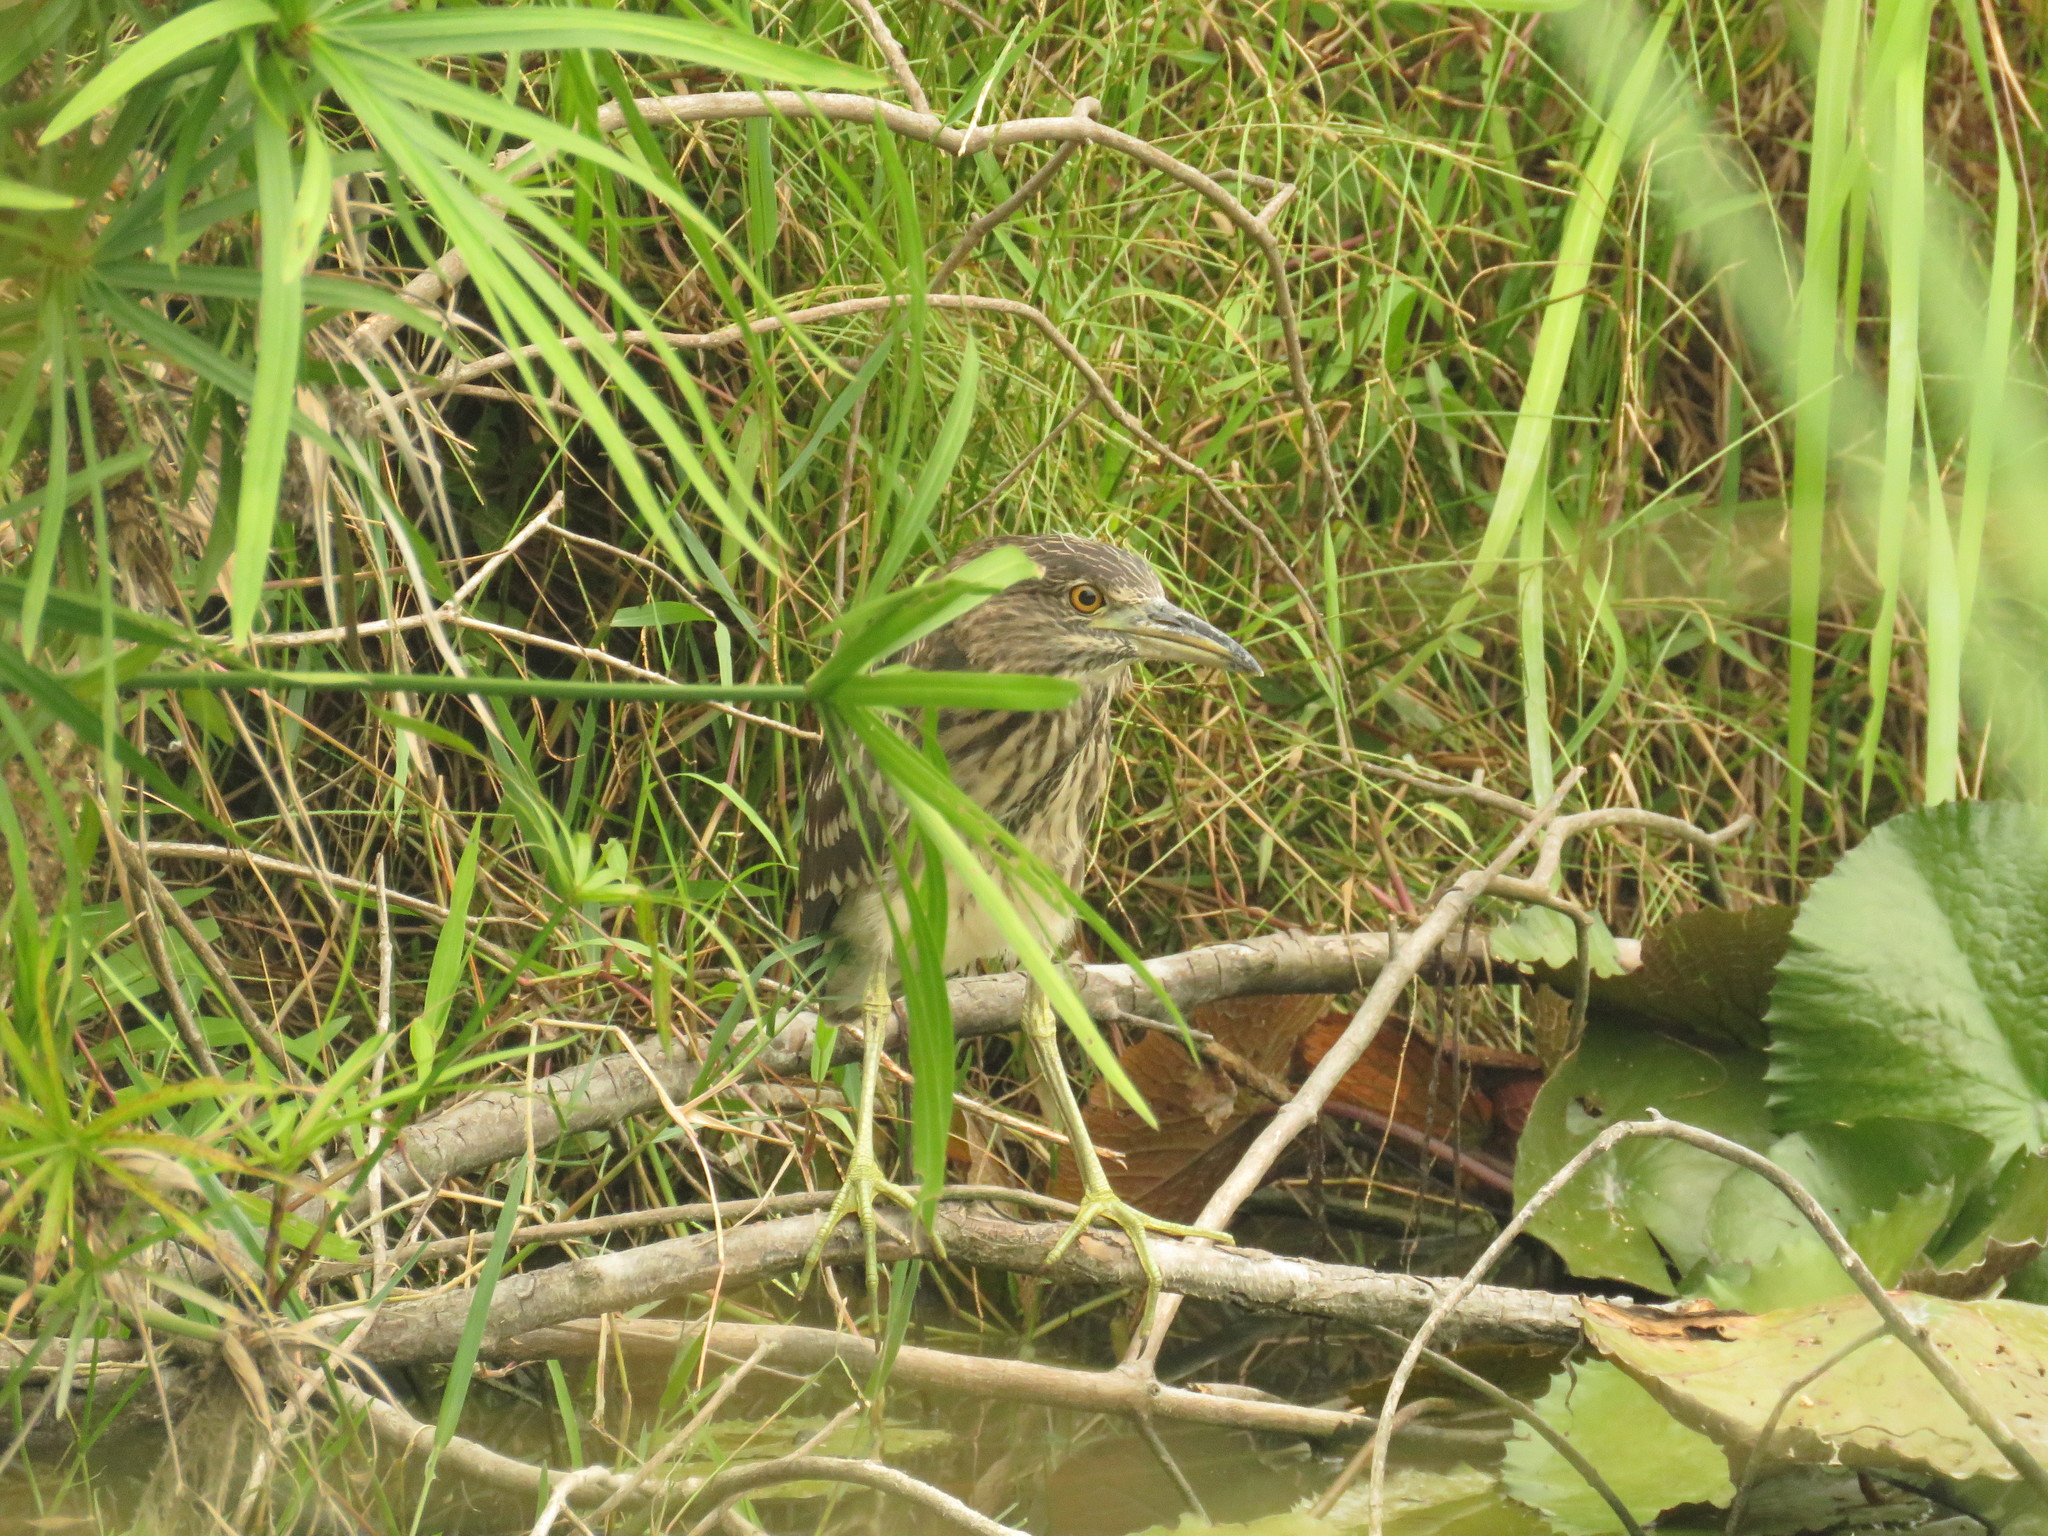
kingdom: Animalia
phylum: Chordata
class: Aves
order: Pelecaniformes
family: Ardeidae
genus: Nycticorax
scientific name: Nycticorax nycticorax
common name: Black-crowned night heron
